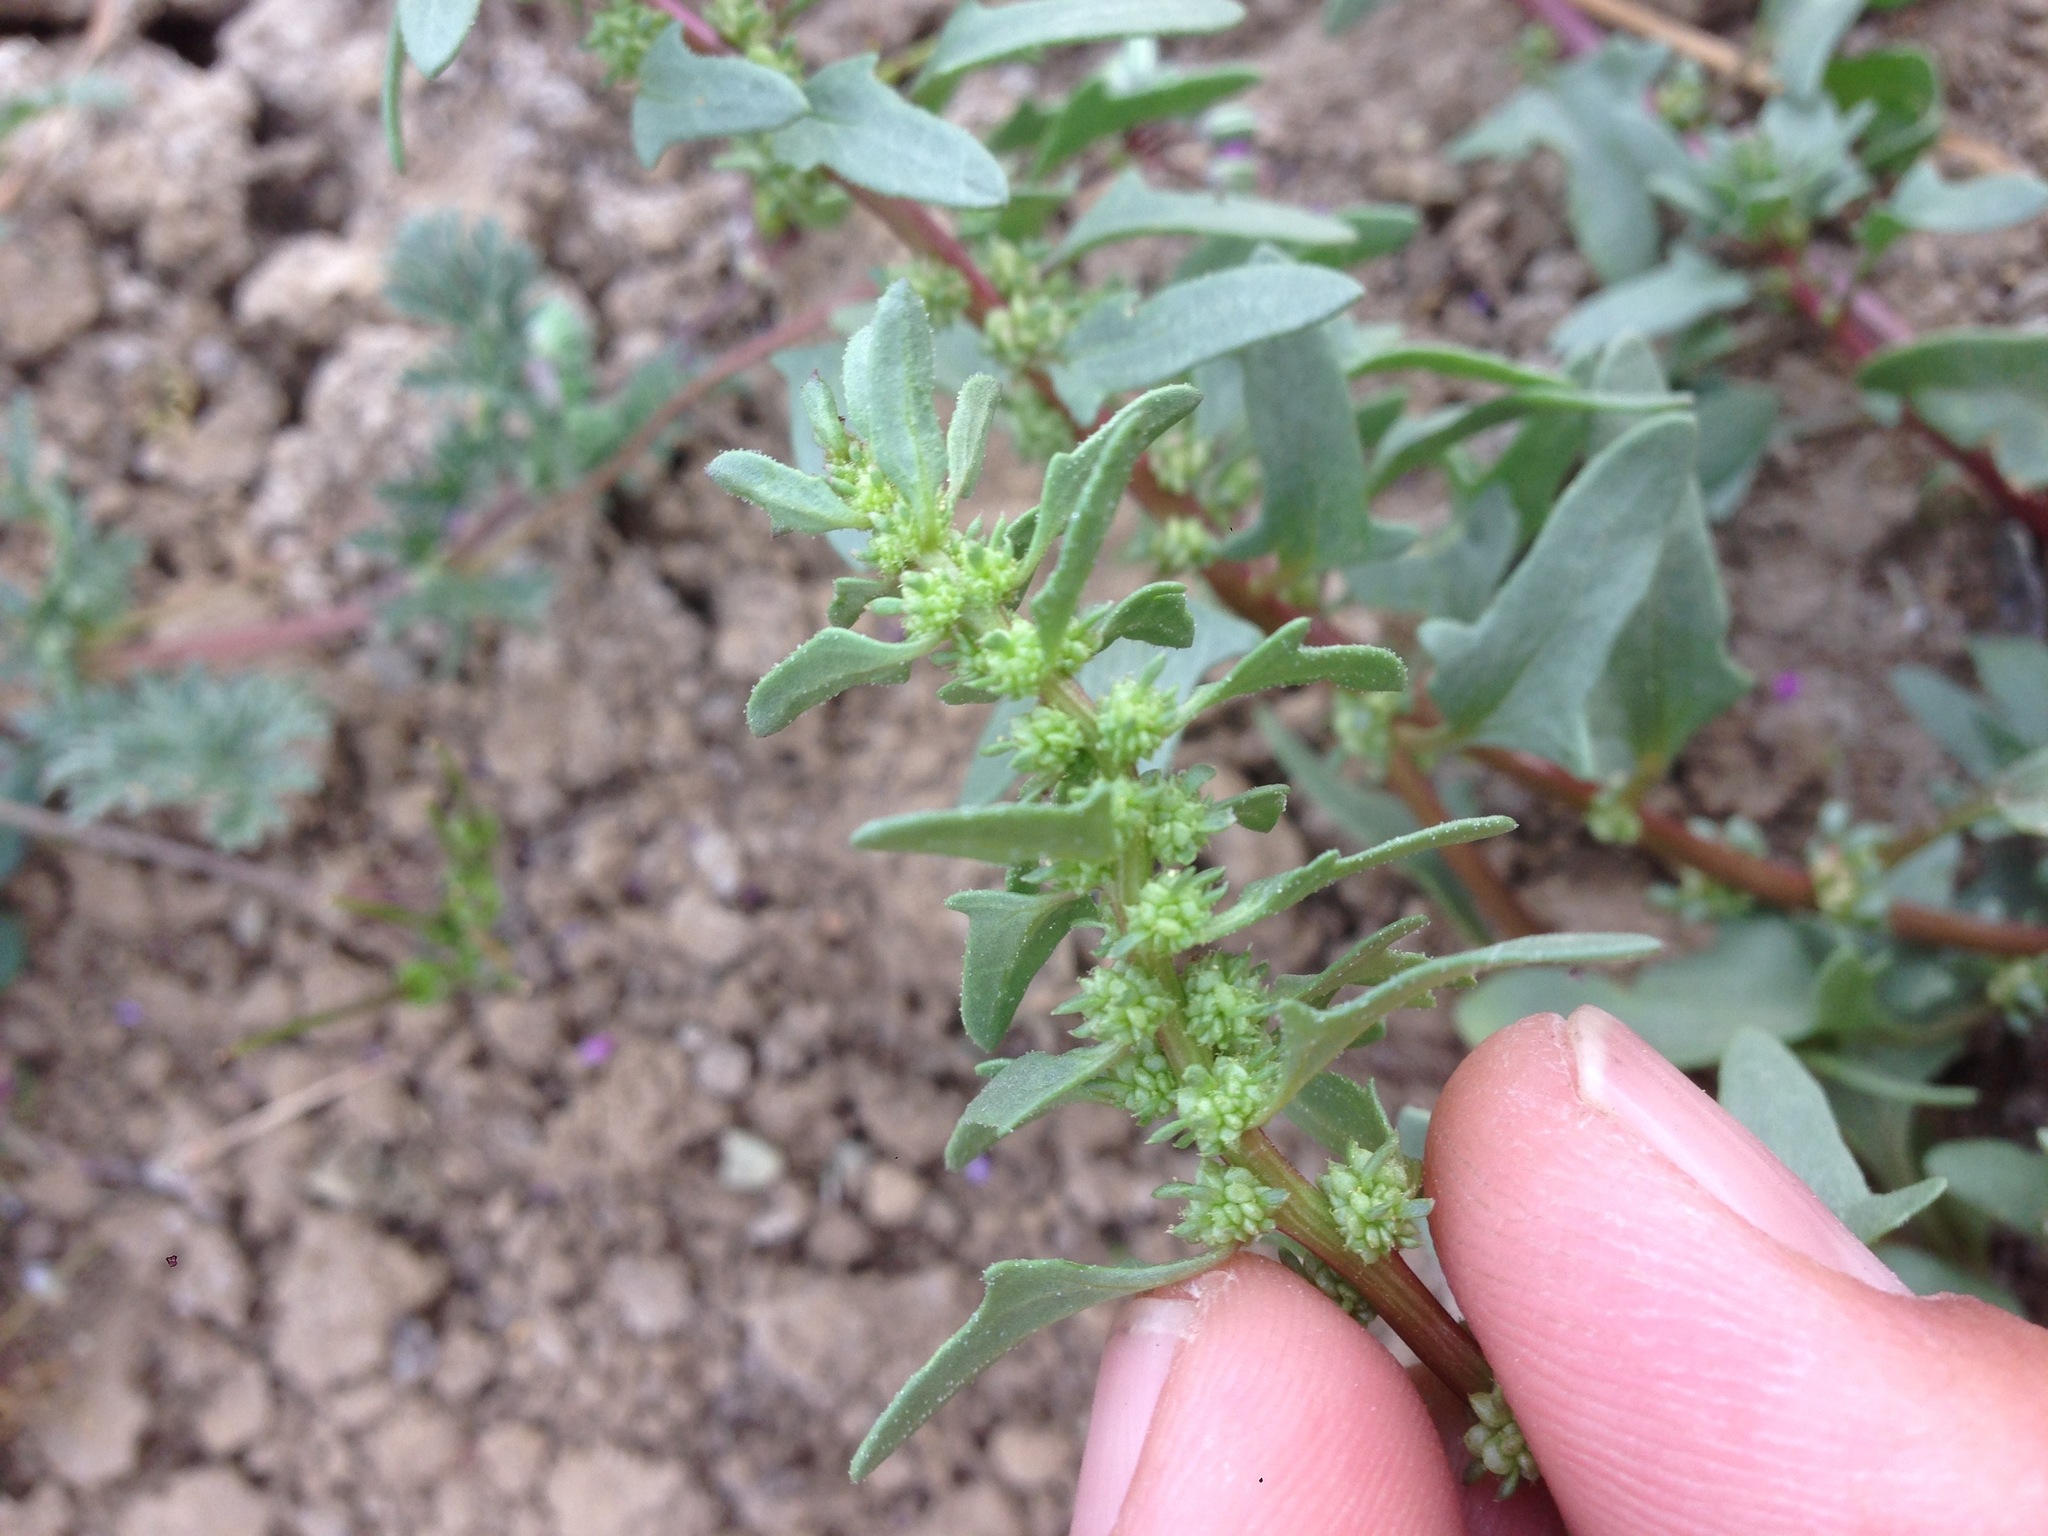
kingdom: Plantae
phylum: Tracheophyta
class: Magnoliopsida
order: Caryophyllales
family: Amaranthaceae
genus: Blitum
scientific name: Blitum nuttallianum
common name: Poverty-weed
